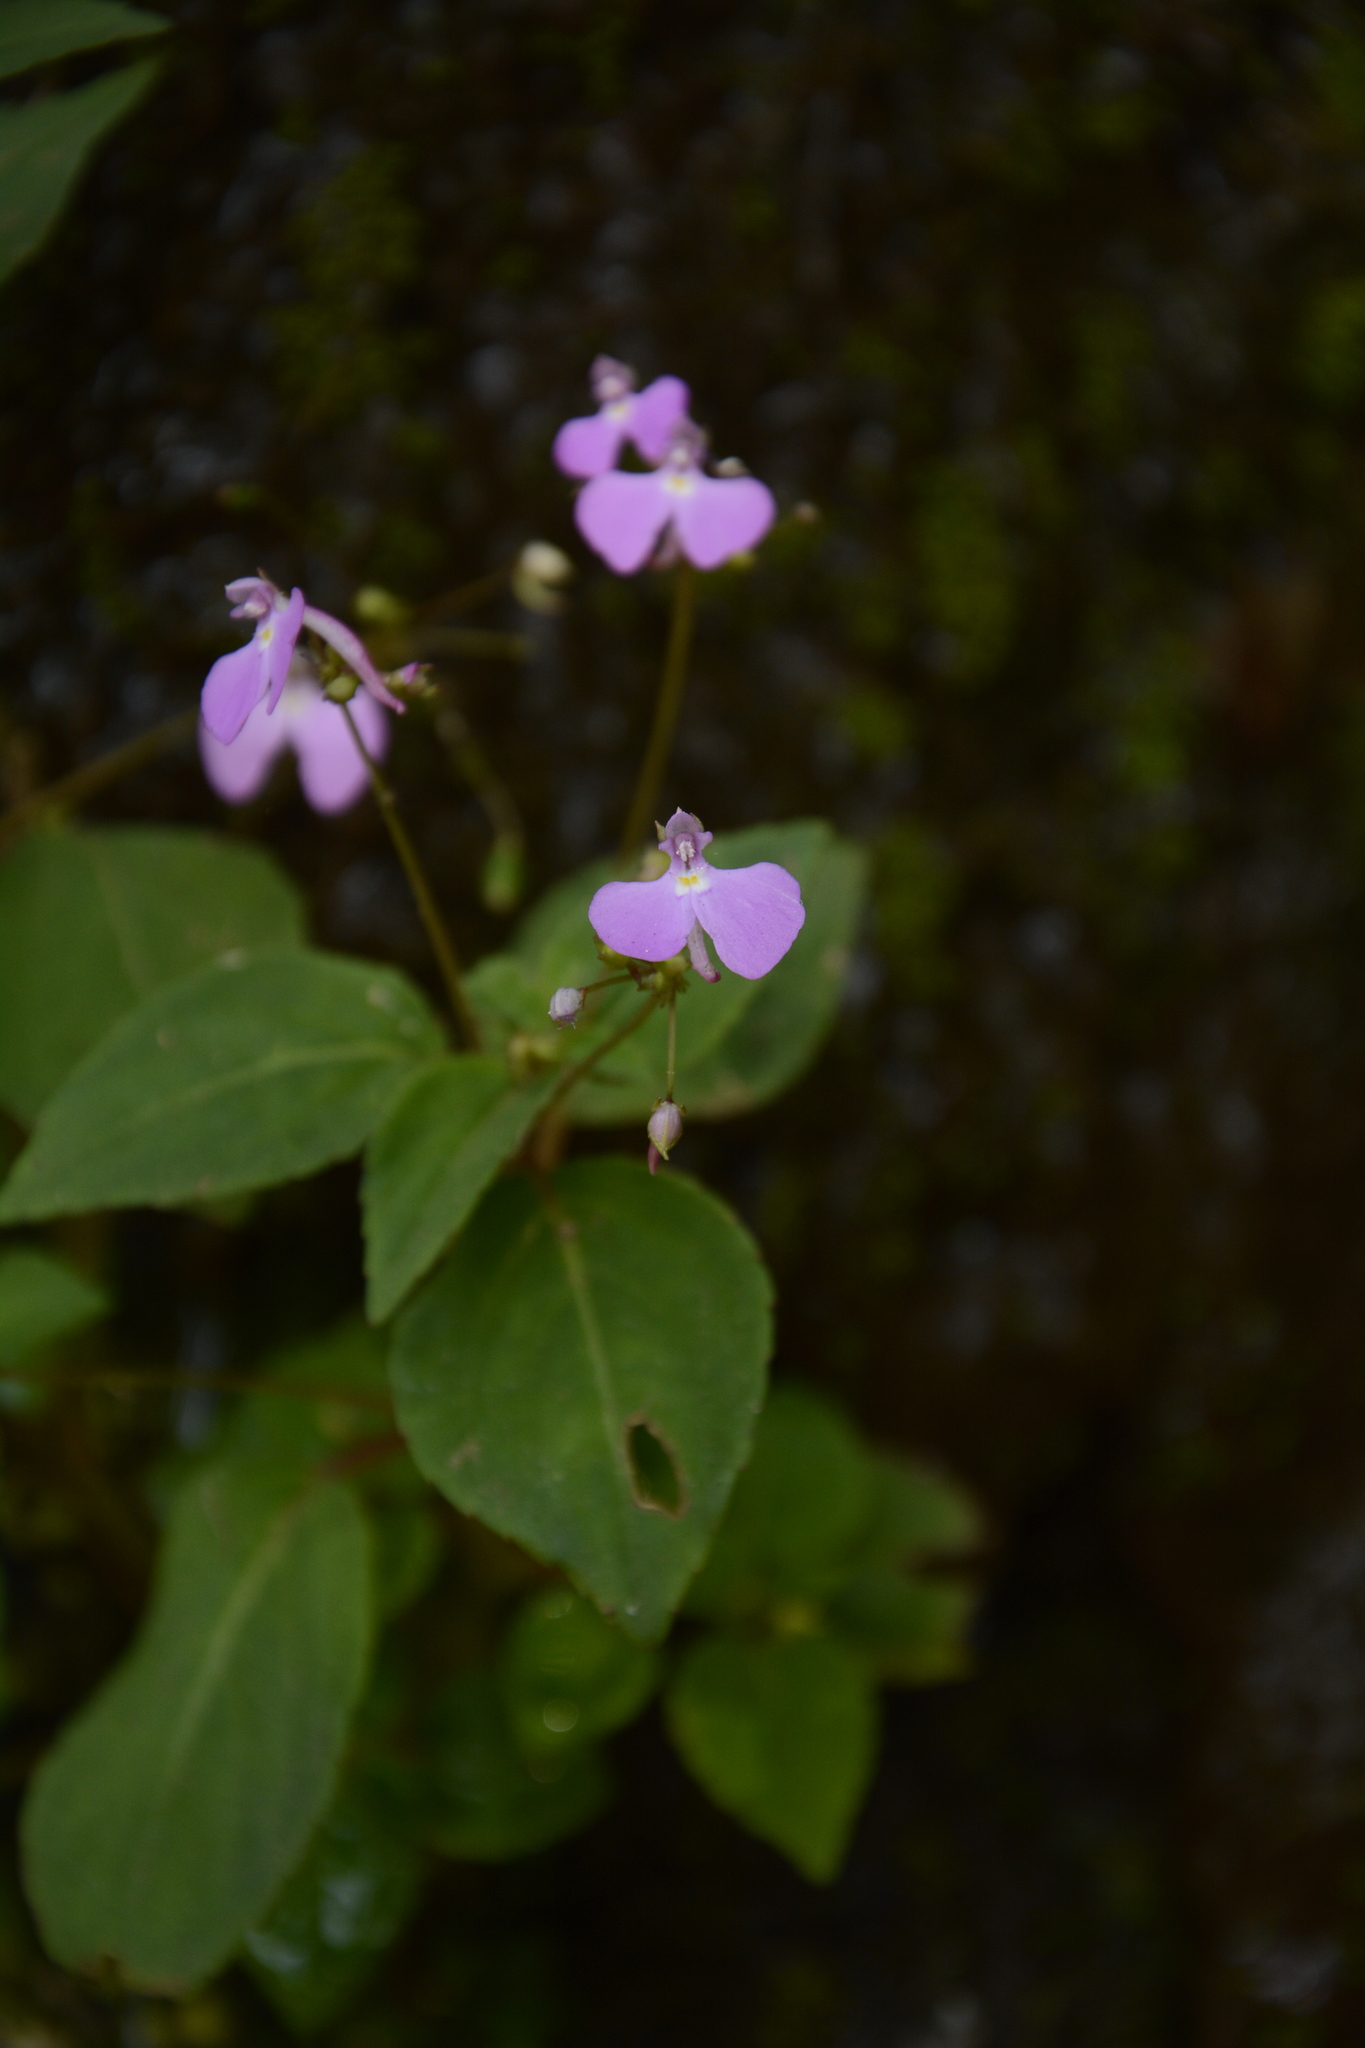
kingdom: Plantae
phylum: Tracheophyta
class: Magnoliopsida
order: Ericales
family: Balsaminaceae
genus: Impatiens
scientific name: Impatiens viscosa
